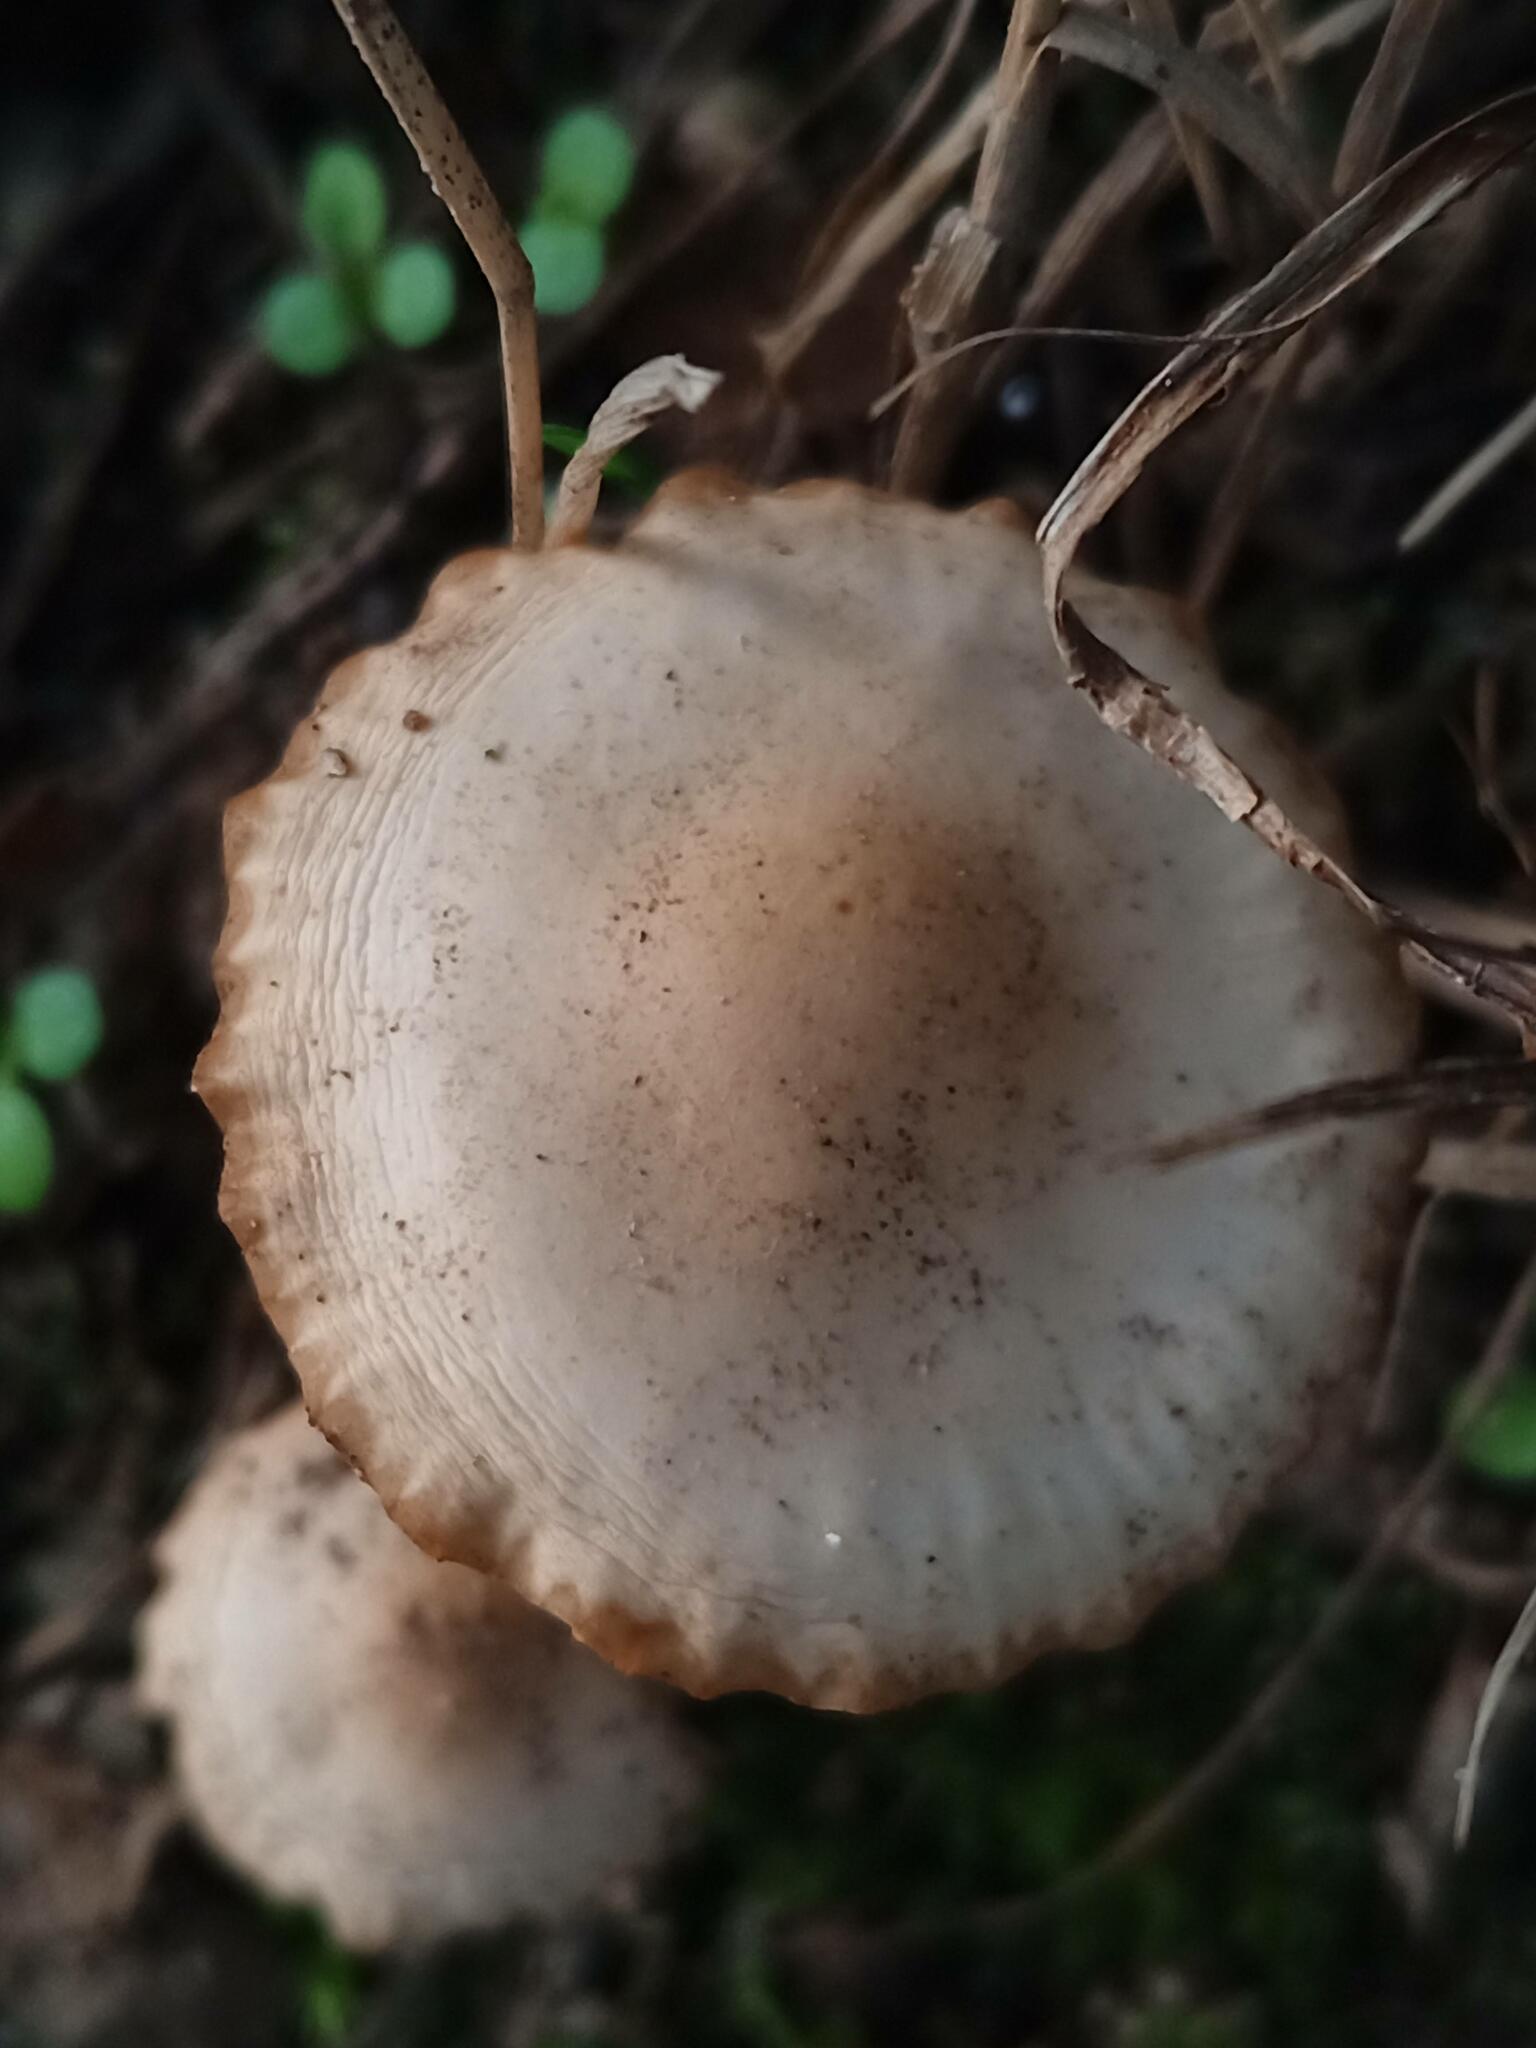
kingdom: Fungi
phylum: Basidiomycota
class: Agaricomycetes
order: Agaricales
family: Marasmiaceae
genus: Marasmius
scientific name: Marasmius oreades
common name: Fairy ring champignon
